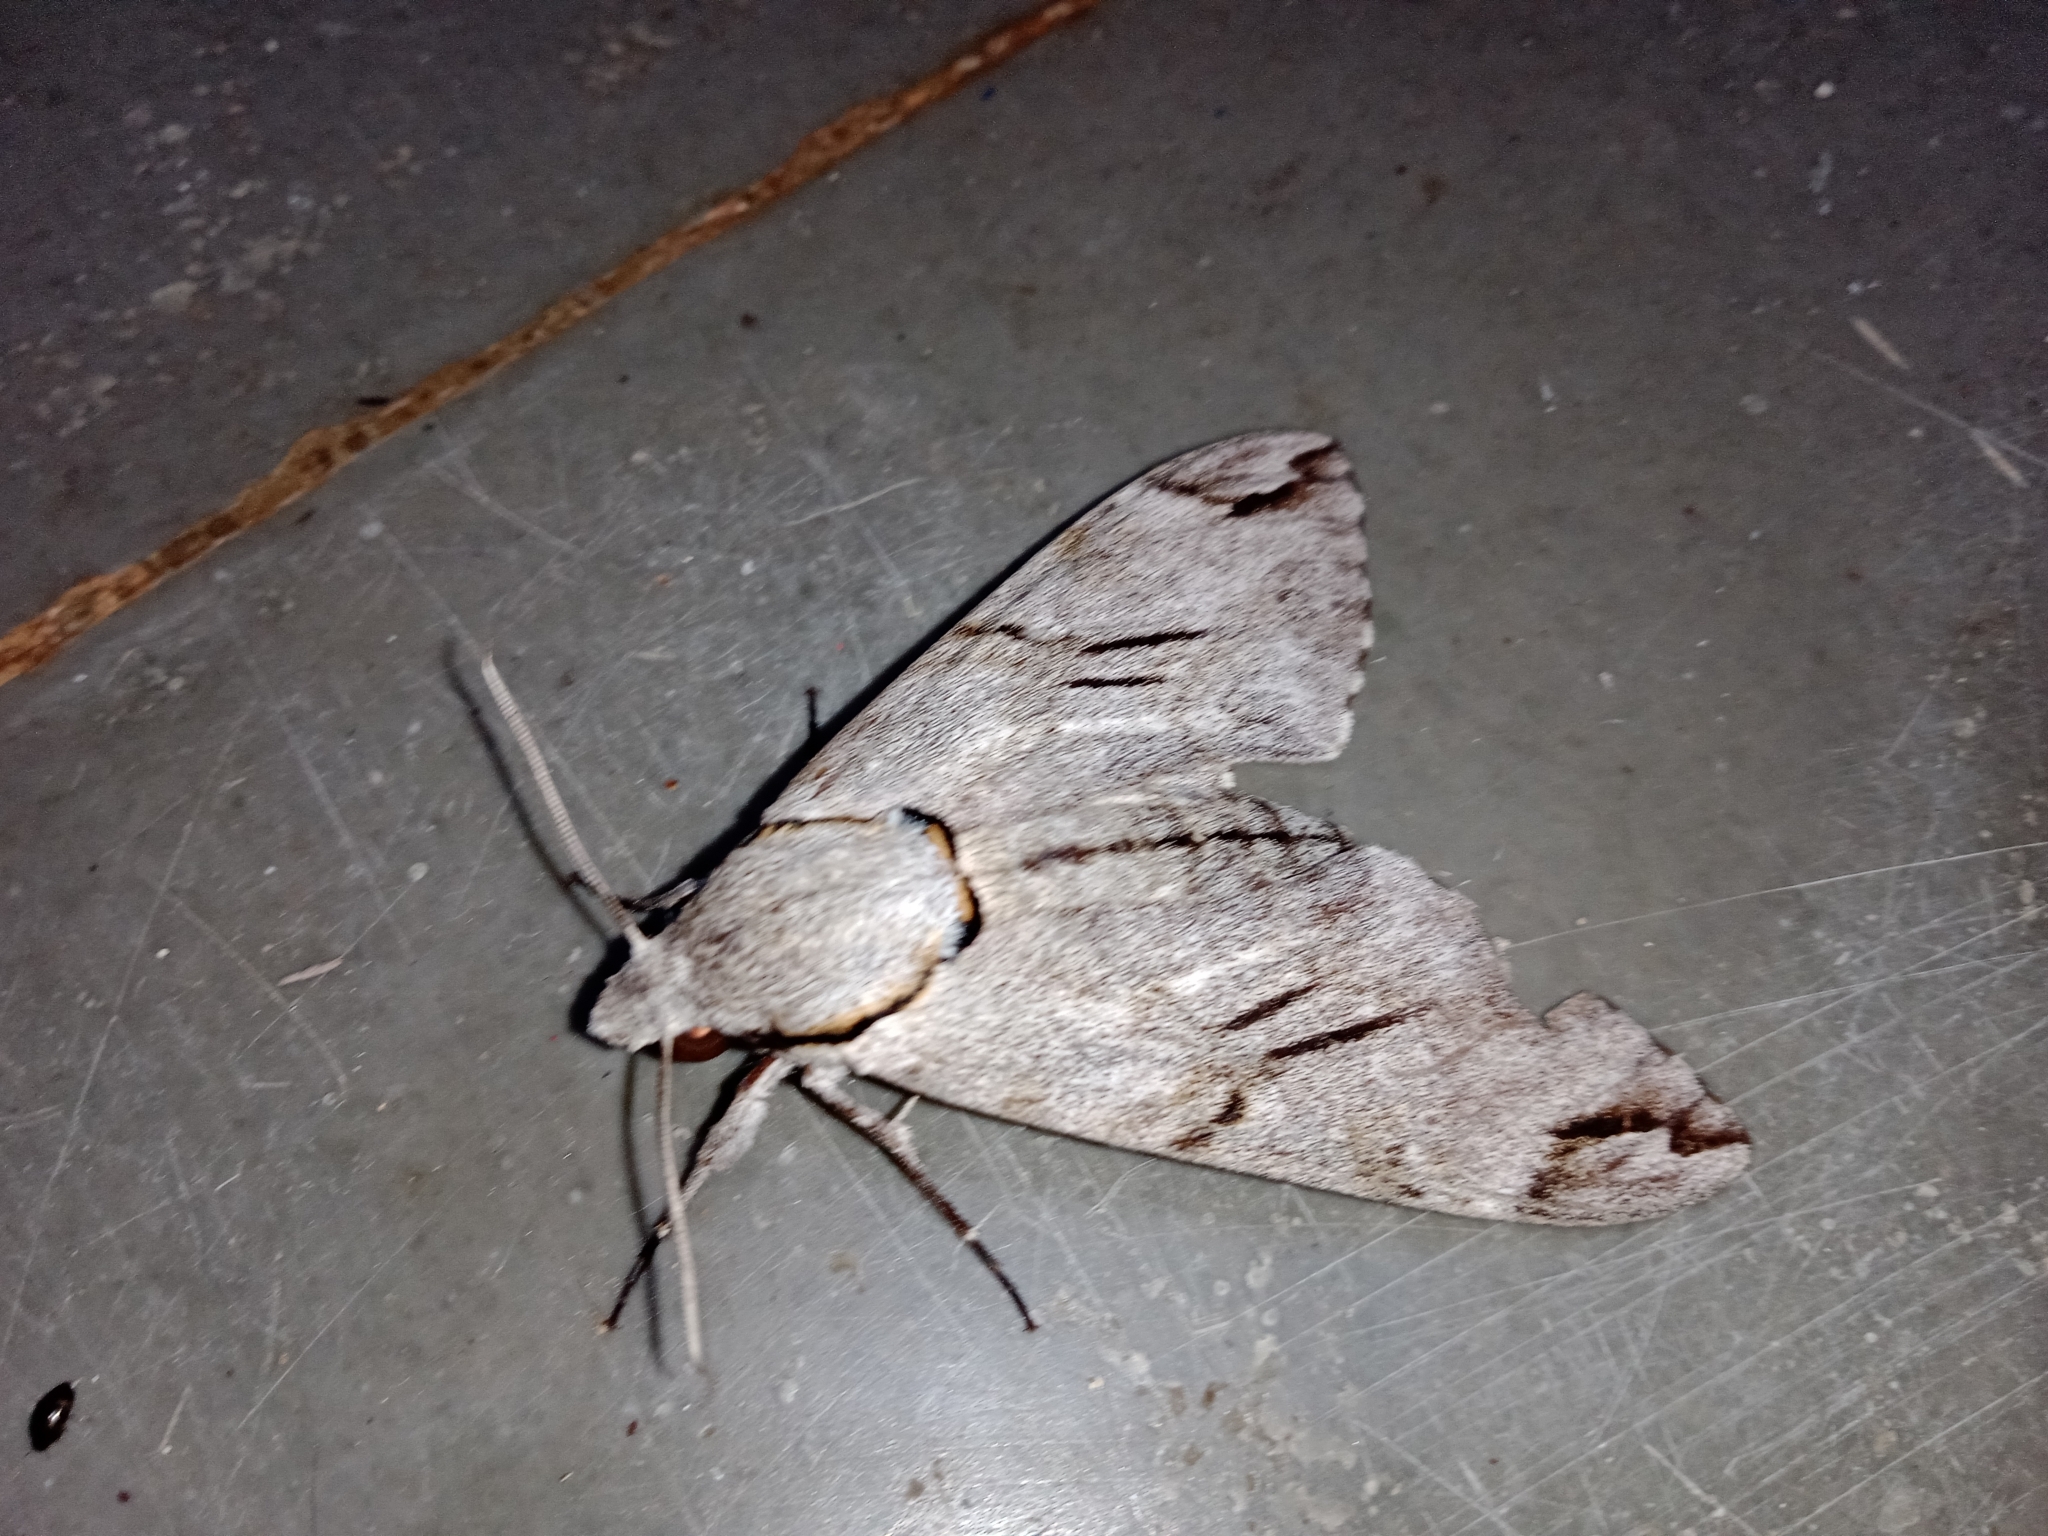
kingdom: Animalia
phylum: Arthropoda
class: Insecta
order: Lepidoptera
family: Sphingidae
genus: Psilogramma
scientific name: Psilogramma vates
